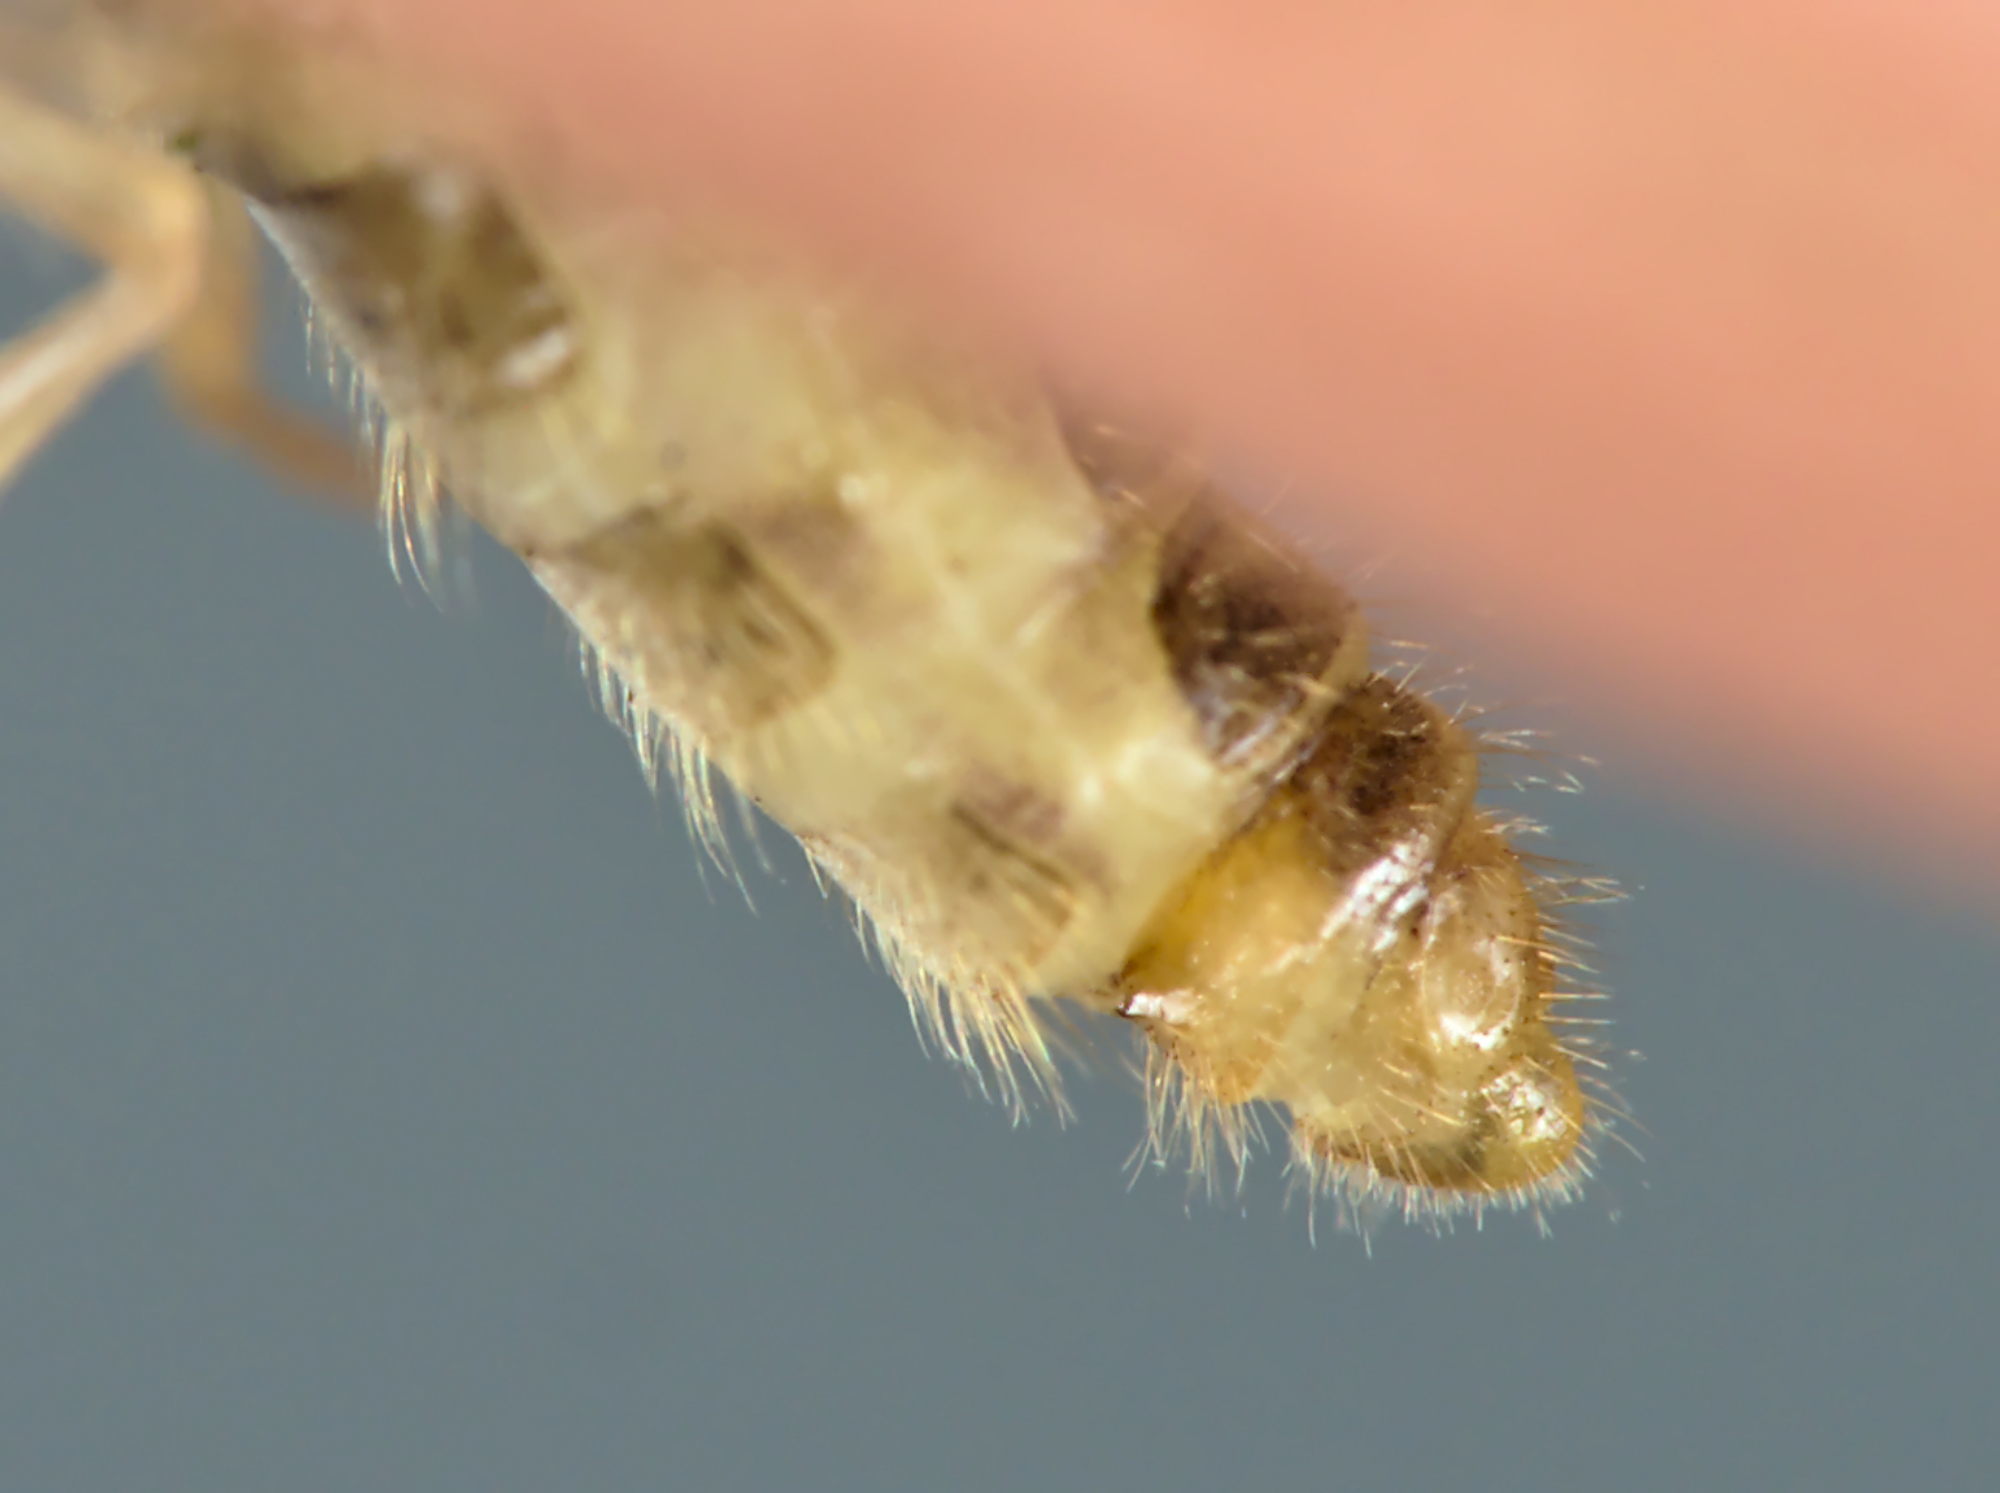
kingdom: Animalia
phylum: Arthropoda
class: Insecta
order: Neuroptera
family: Hemerobiidae
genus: Hemerobius
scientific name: Hemerobius humulinus
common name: Humulin brown lacewing
